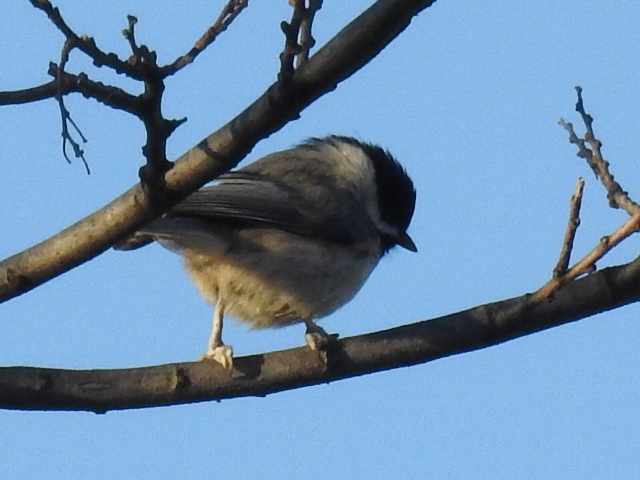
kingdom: Animalia
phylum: Chordata
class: Aves
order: Passeriformes
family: Paridae
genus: Poecile
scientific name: Poecile carolinensis
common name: Carolina chickadee
